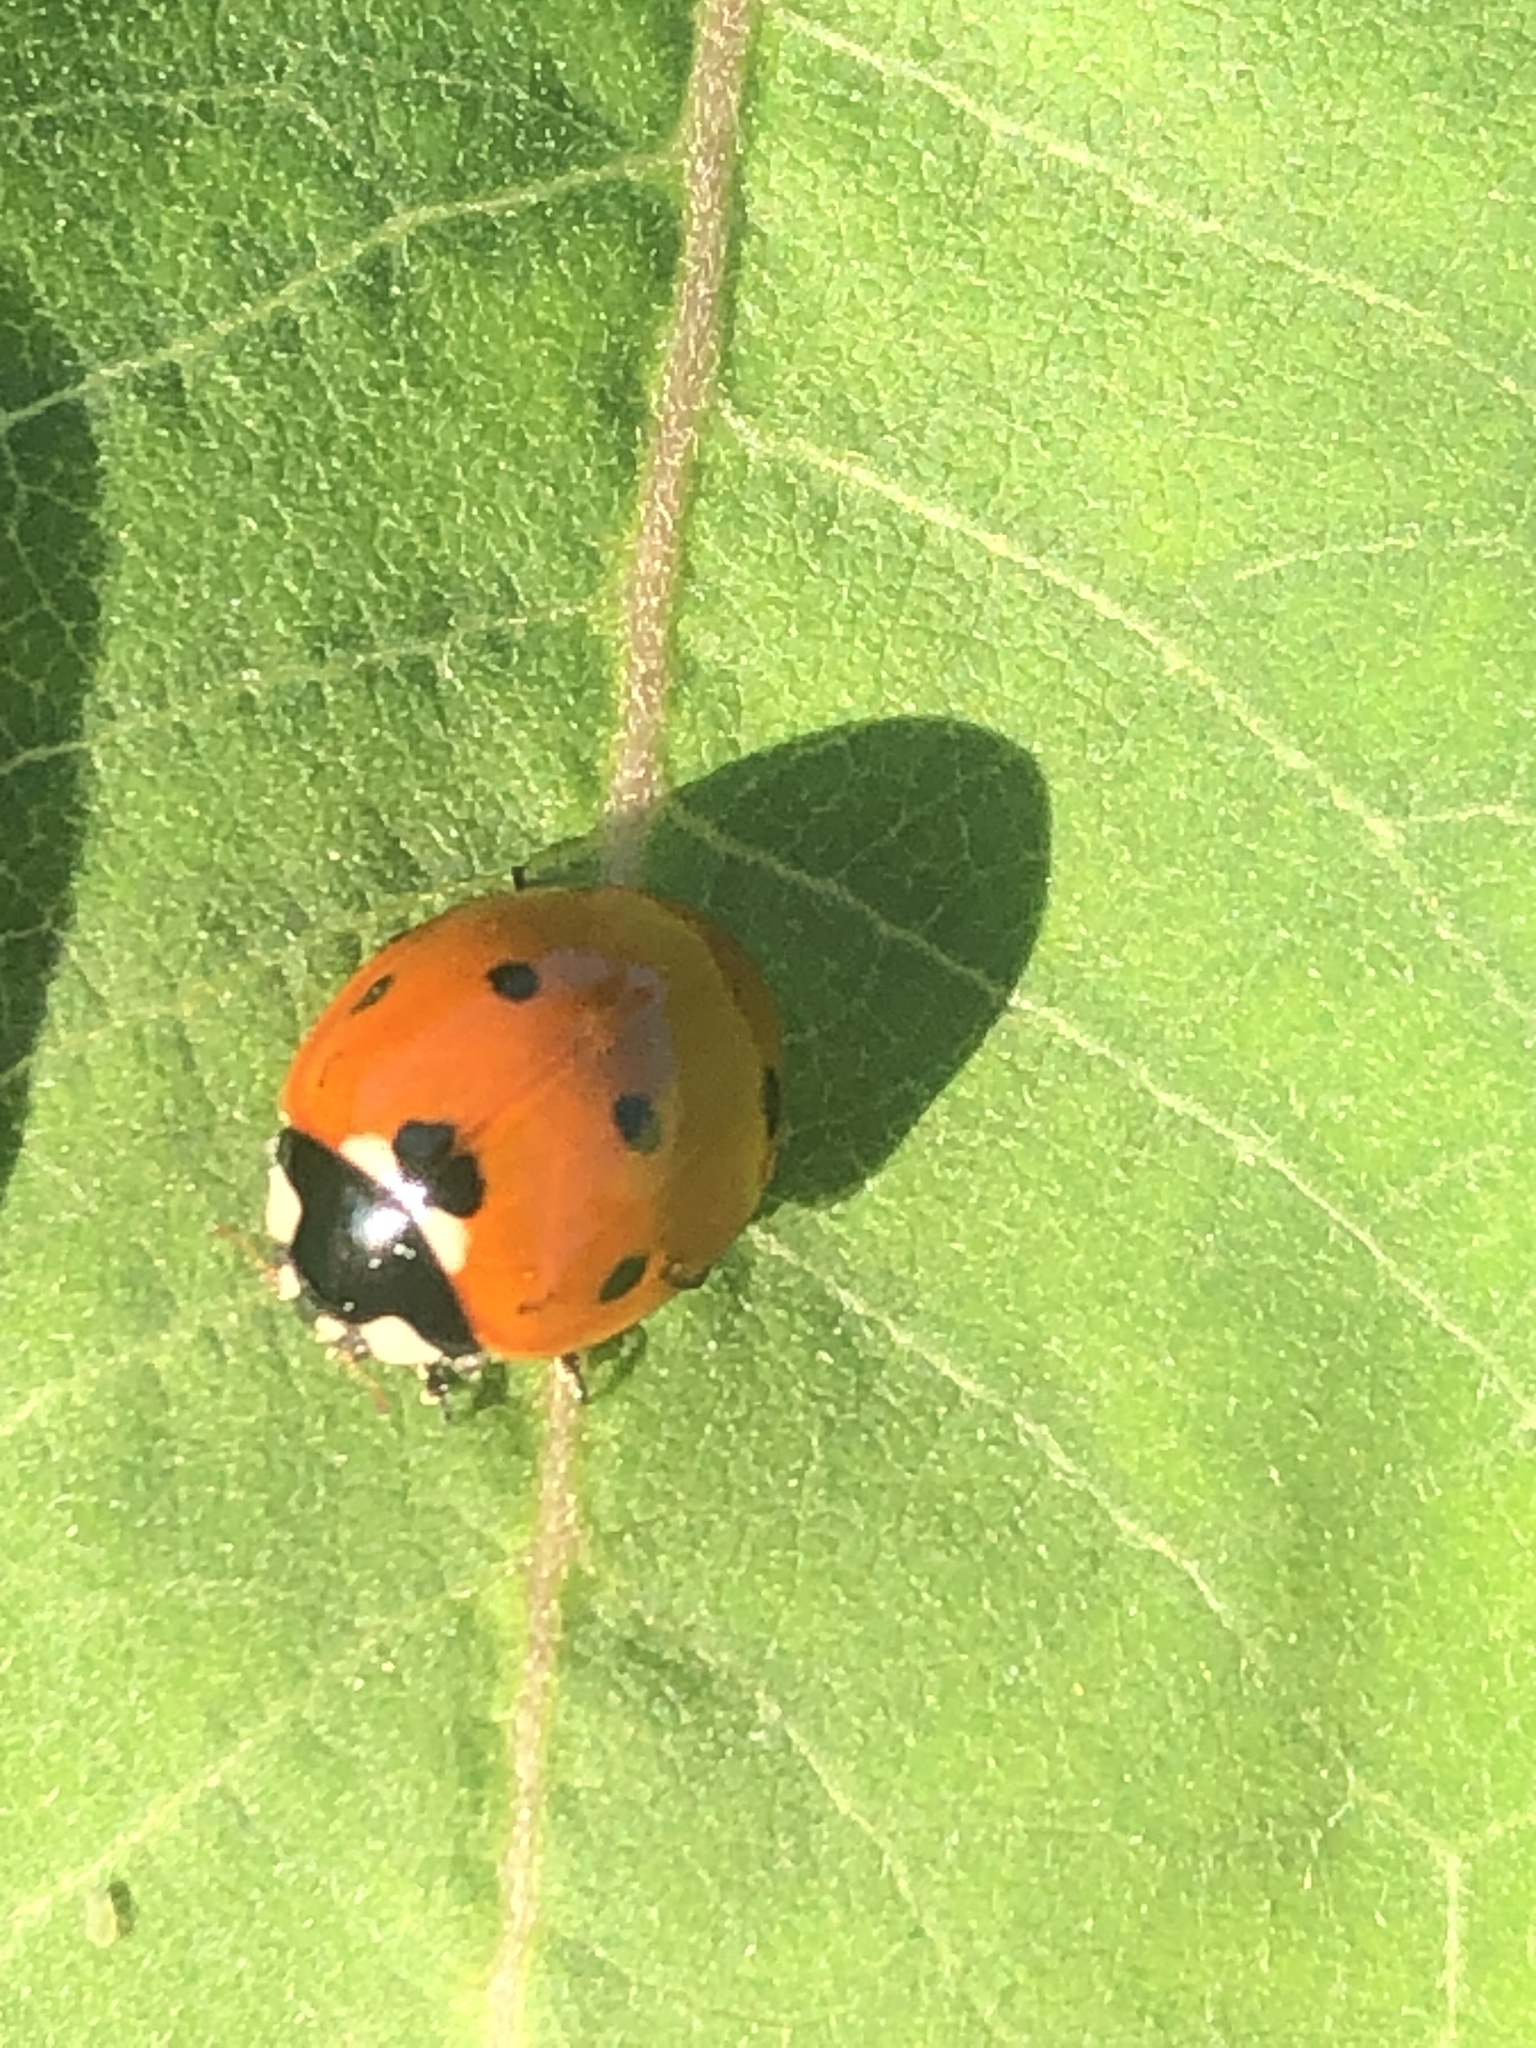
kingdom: Animalia
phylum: Arthropoda
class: Insecta
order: Coleoptera
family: Coccinellidae
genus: Coccinella
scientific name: Coccinella septempunctata
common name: Sevenspotted lady beetle
